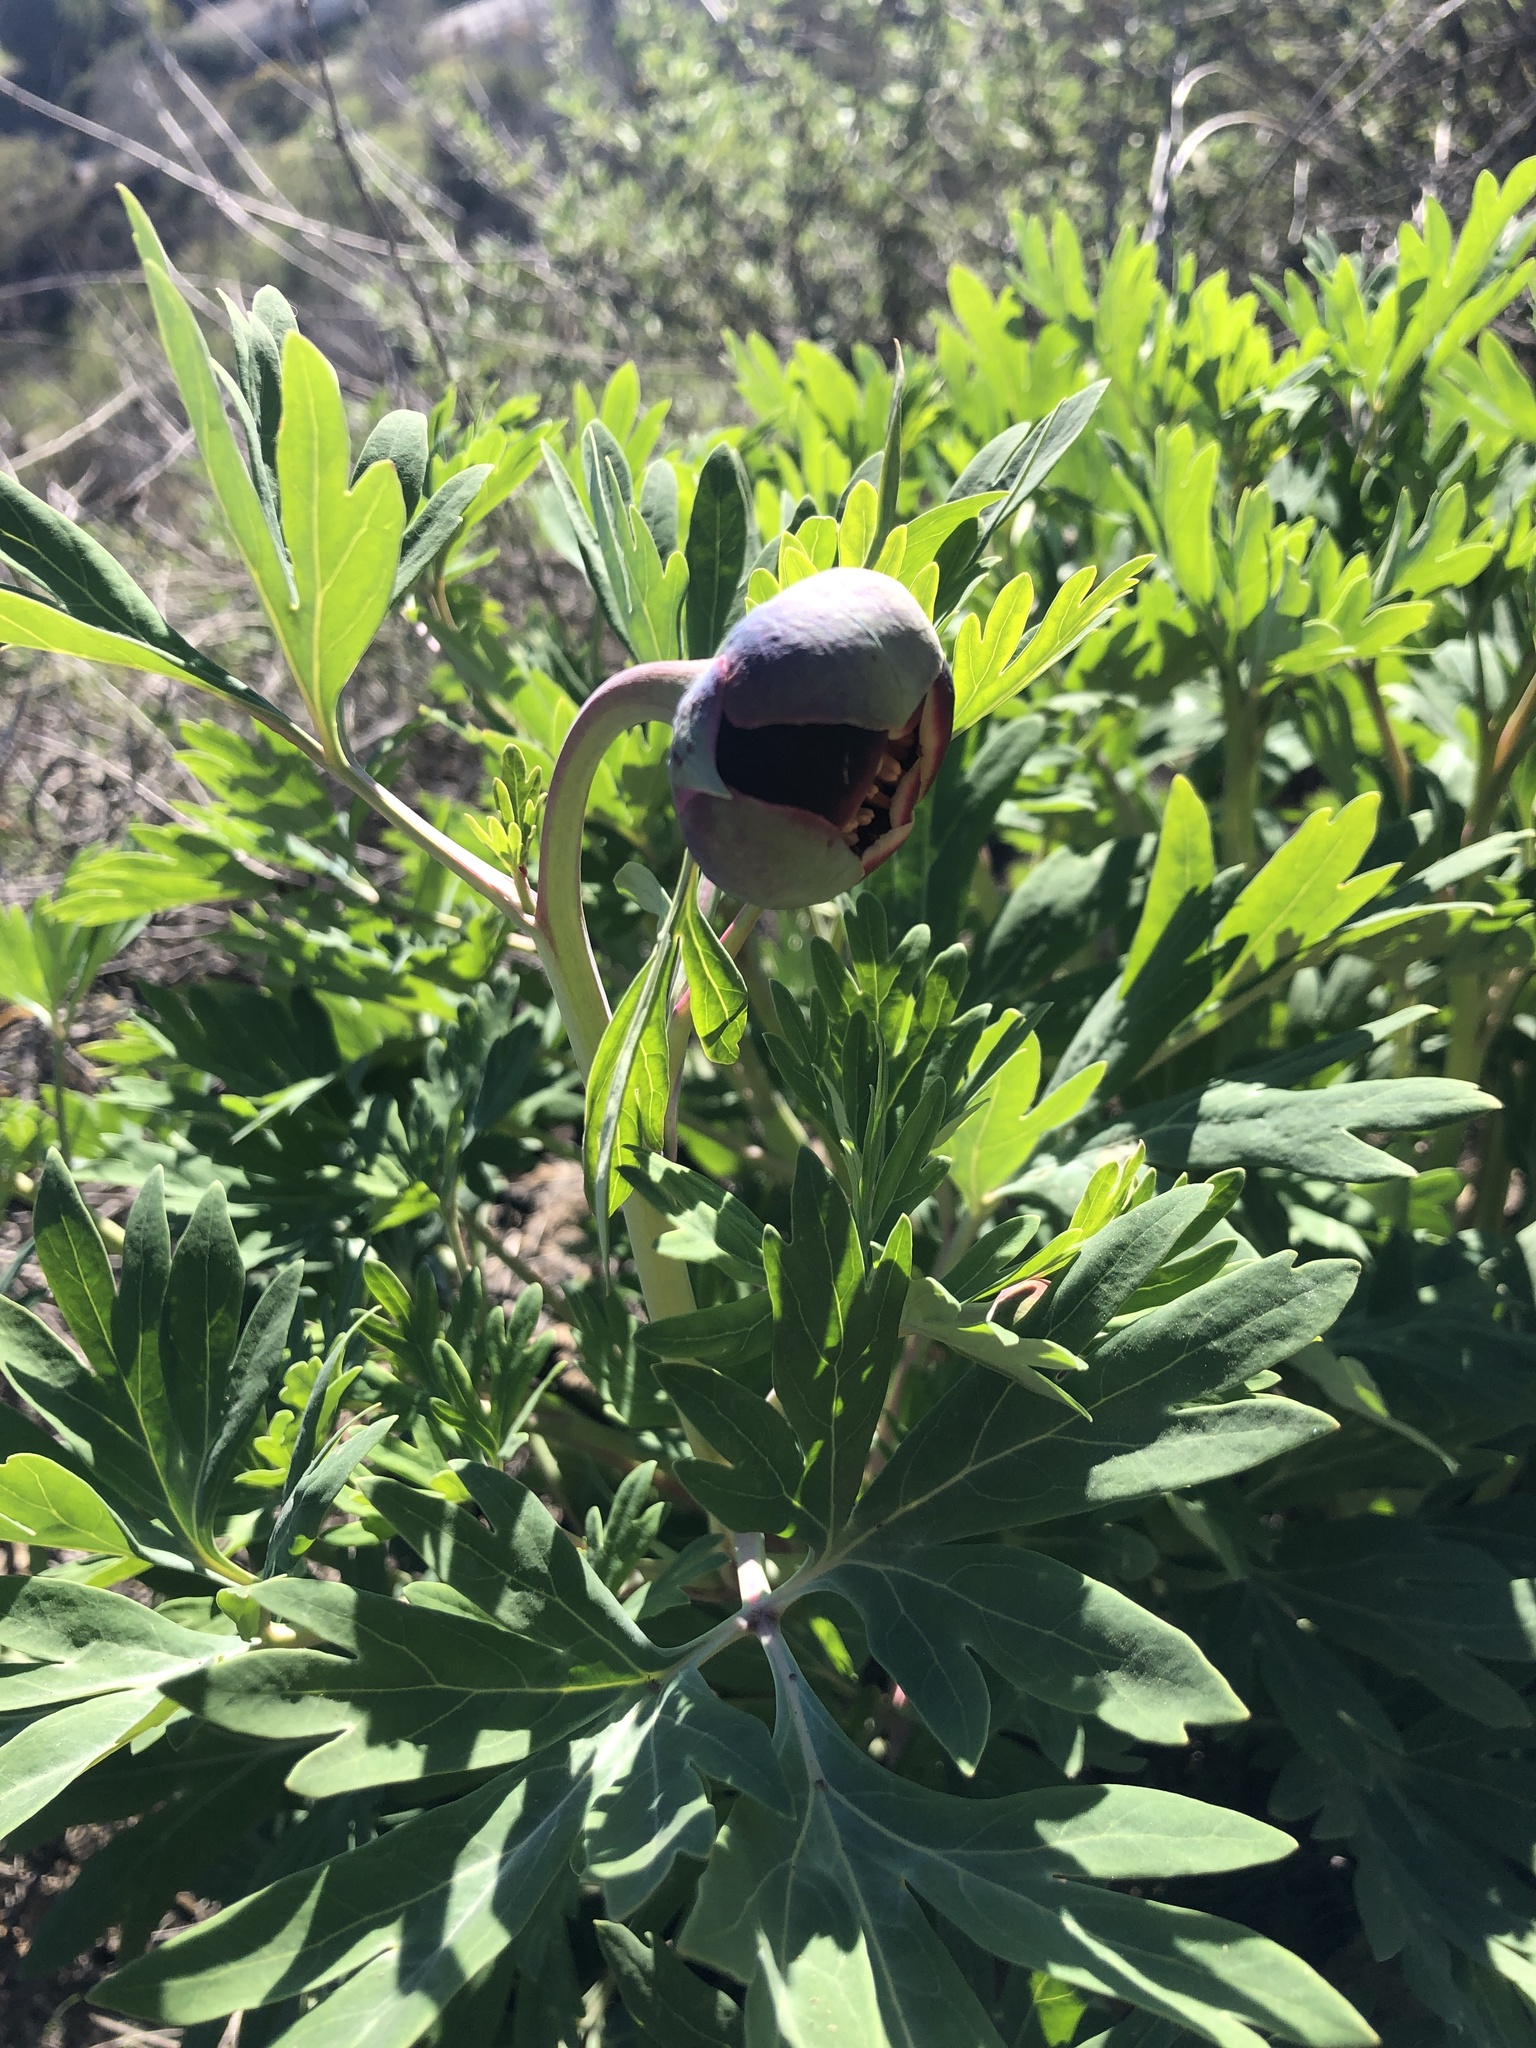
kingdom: Plantae
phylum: Tracheophyta
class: Magnoliopsida
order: Saxifragales
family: Paeoniaceae
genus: Paeonia
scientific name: Paeonia californica
